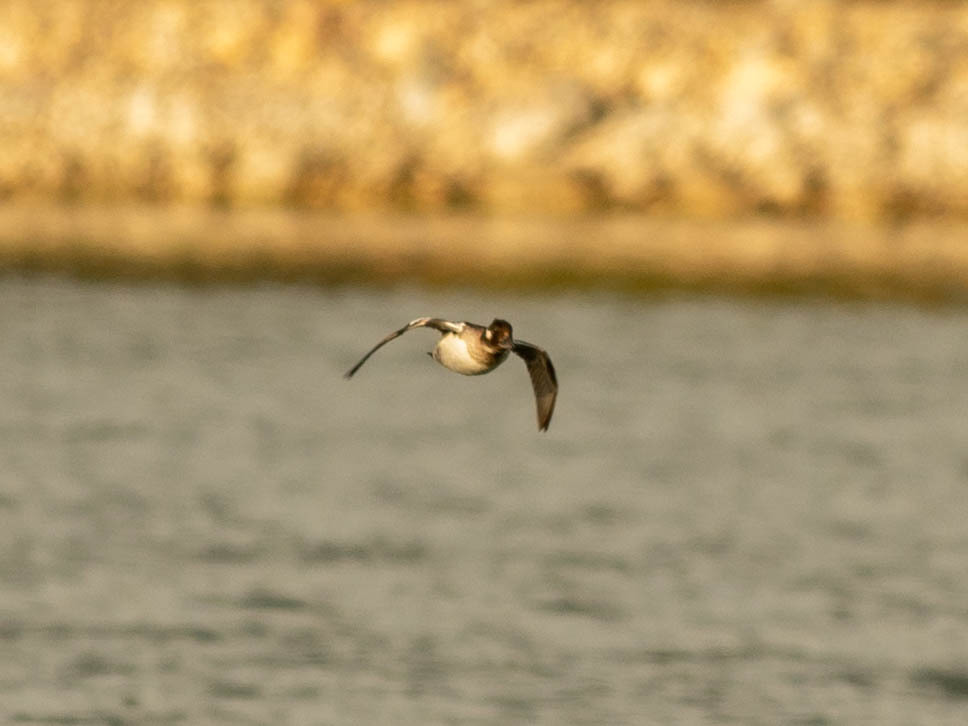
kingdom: Animalia
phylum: Chordata
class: Aves
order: Anseriformes
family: Anatidae
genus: Bucephala
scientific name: Bucephala albeola
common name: Bufflehead
